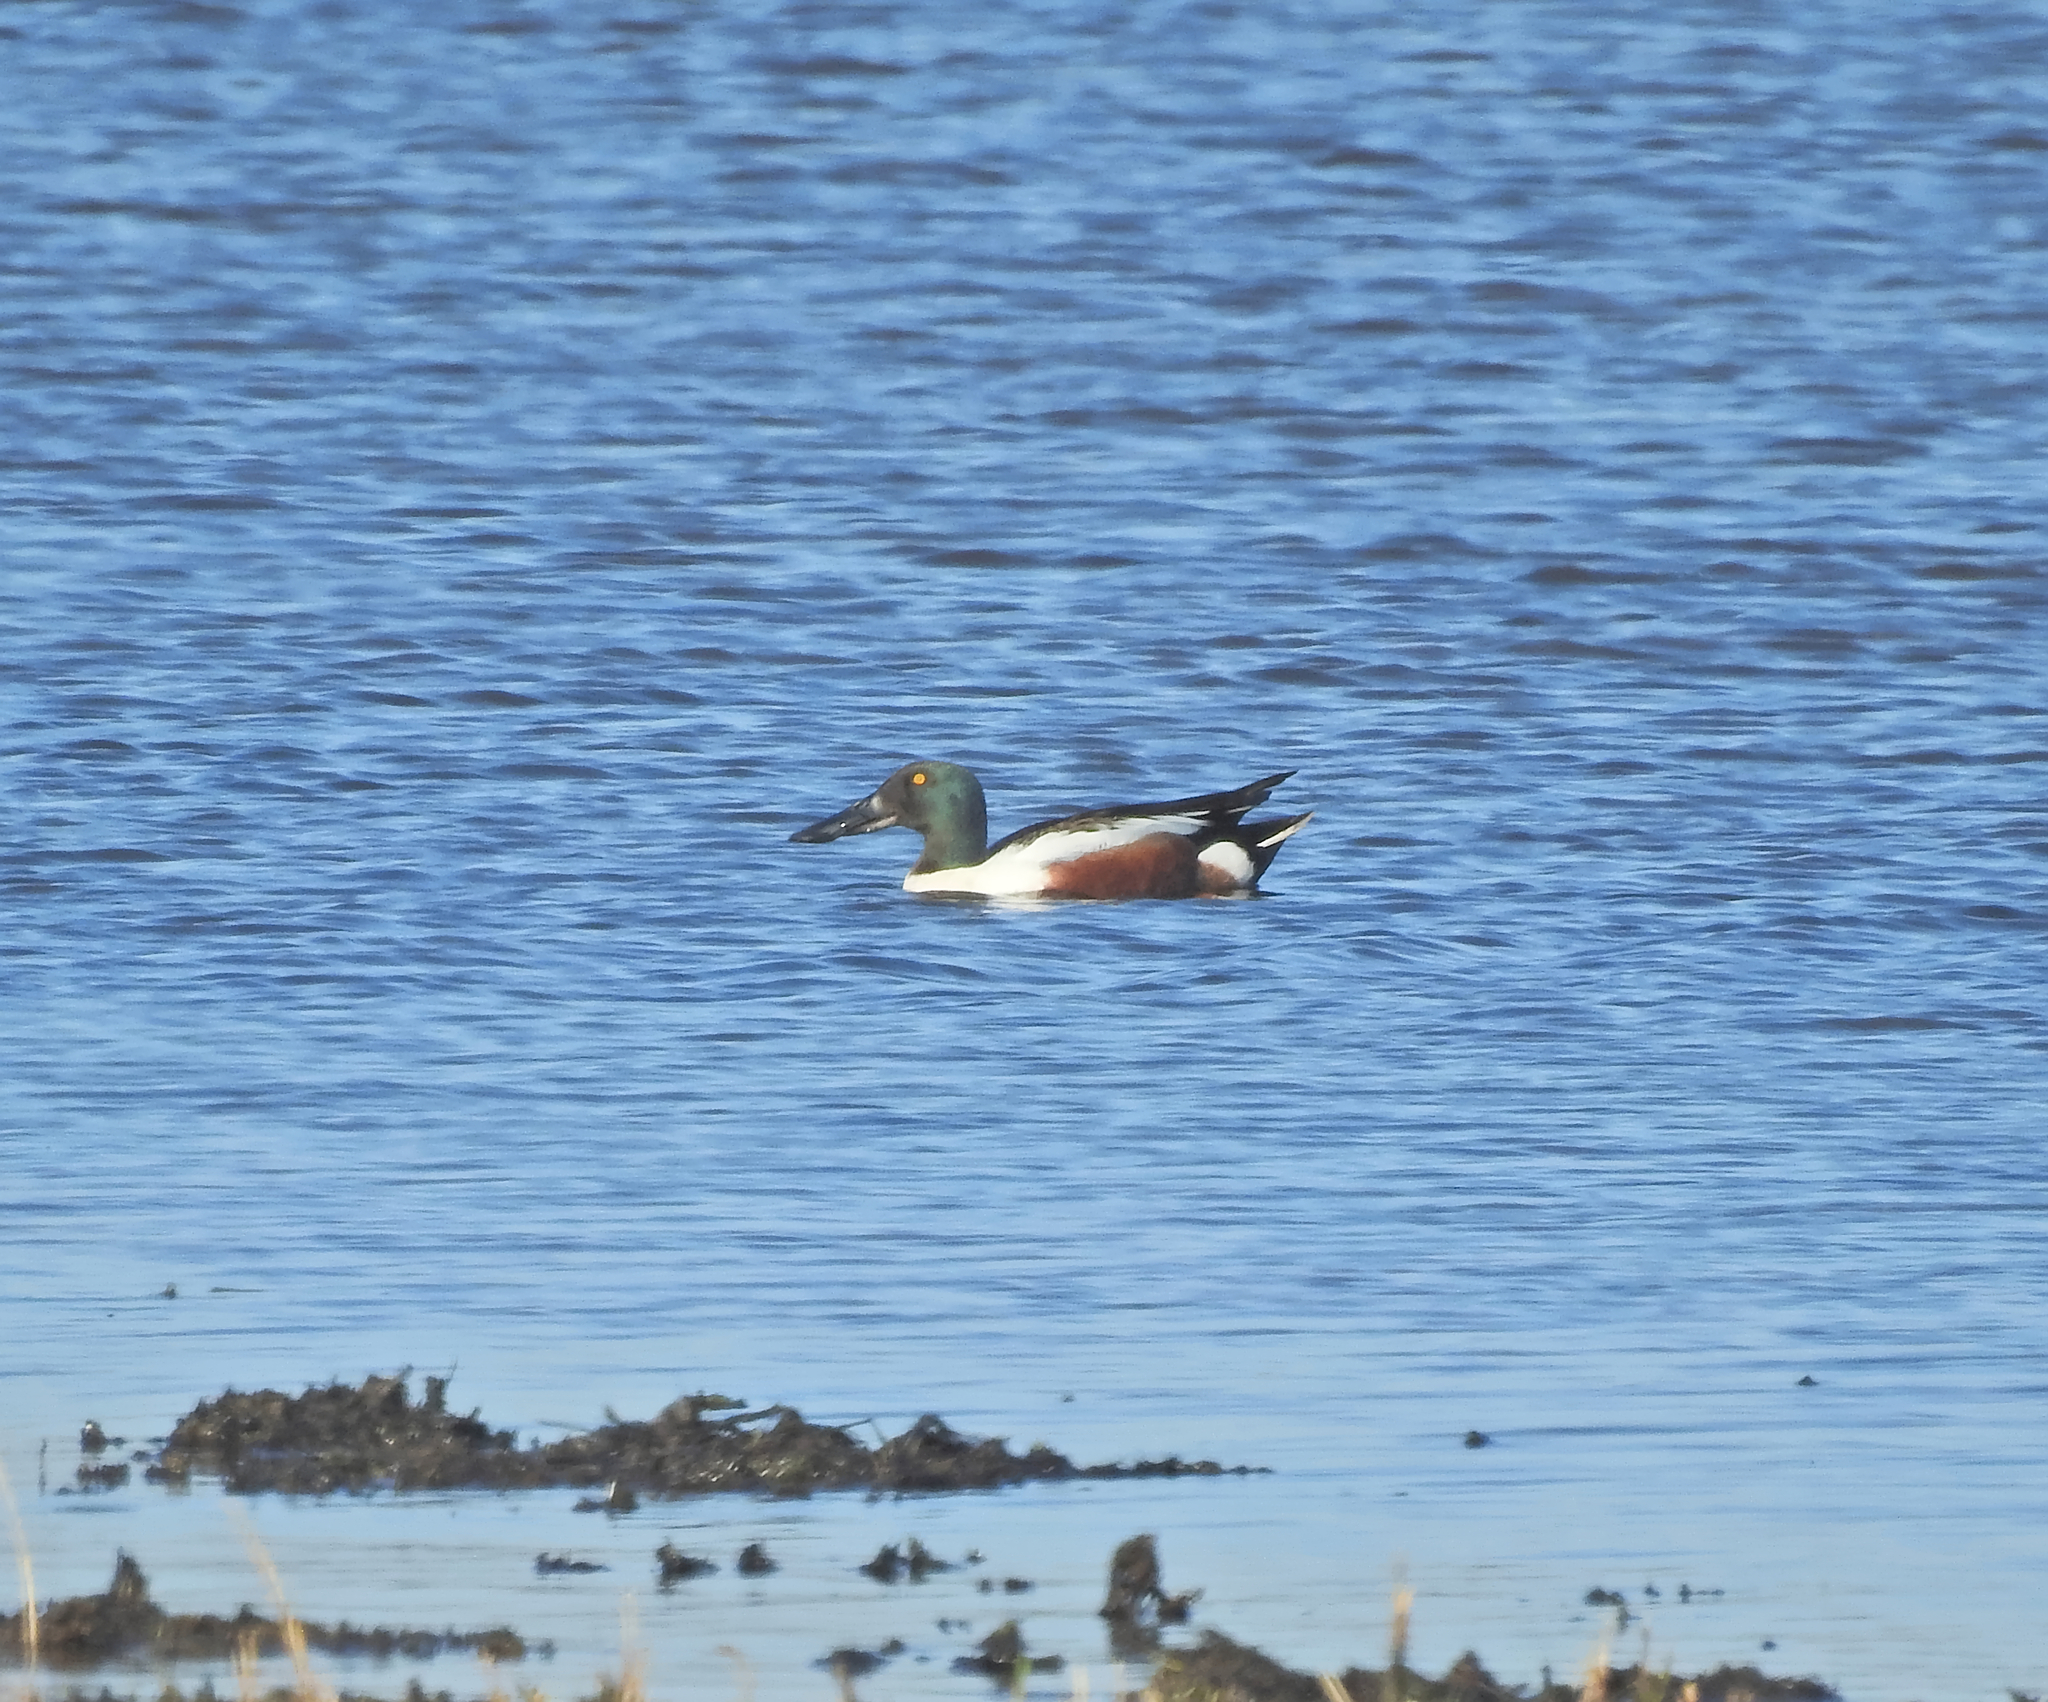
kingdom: Animalia
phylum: Chordata
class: Aves
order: Anseriformes
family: Anatidae
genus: Spatula
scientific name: Spatula clypeata
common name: Northern shoveler
